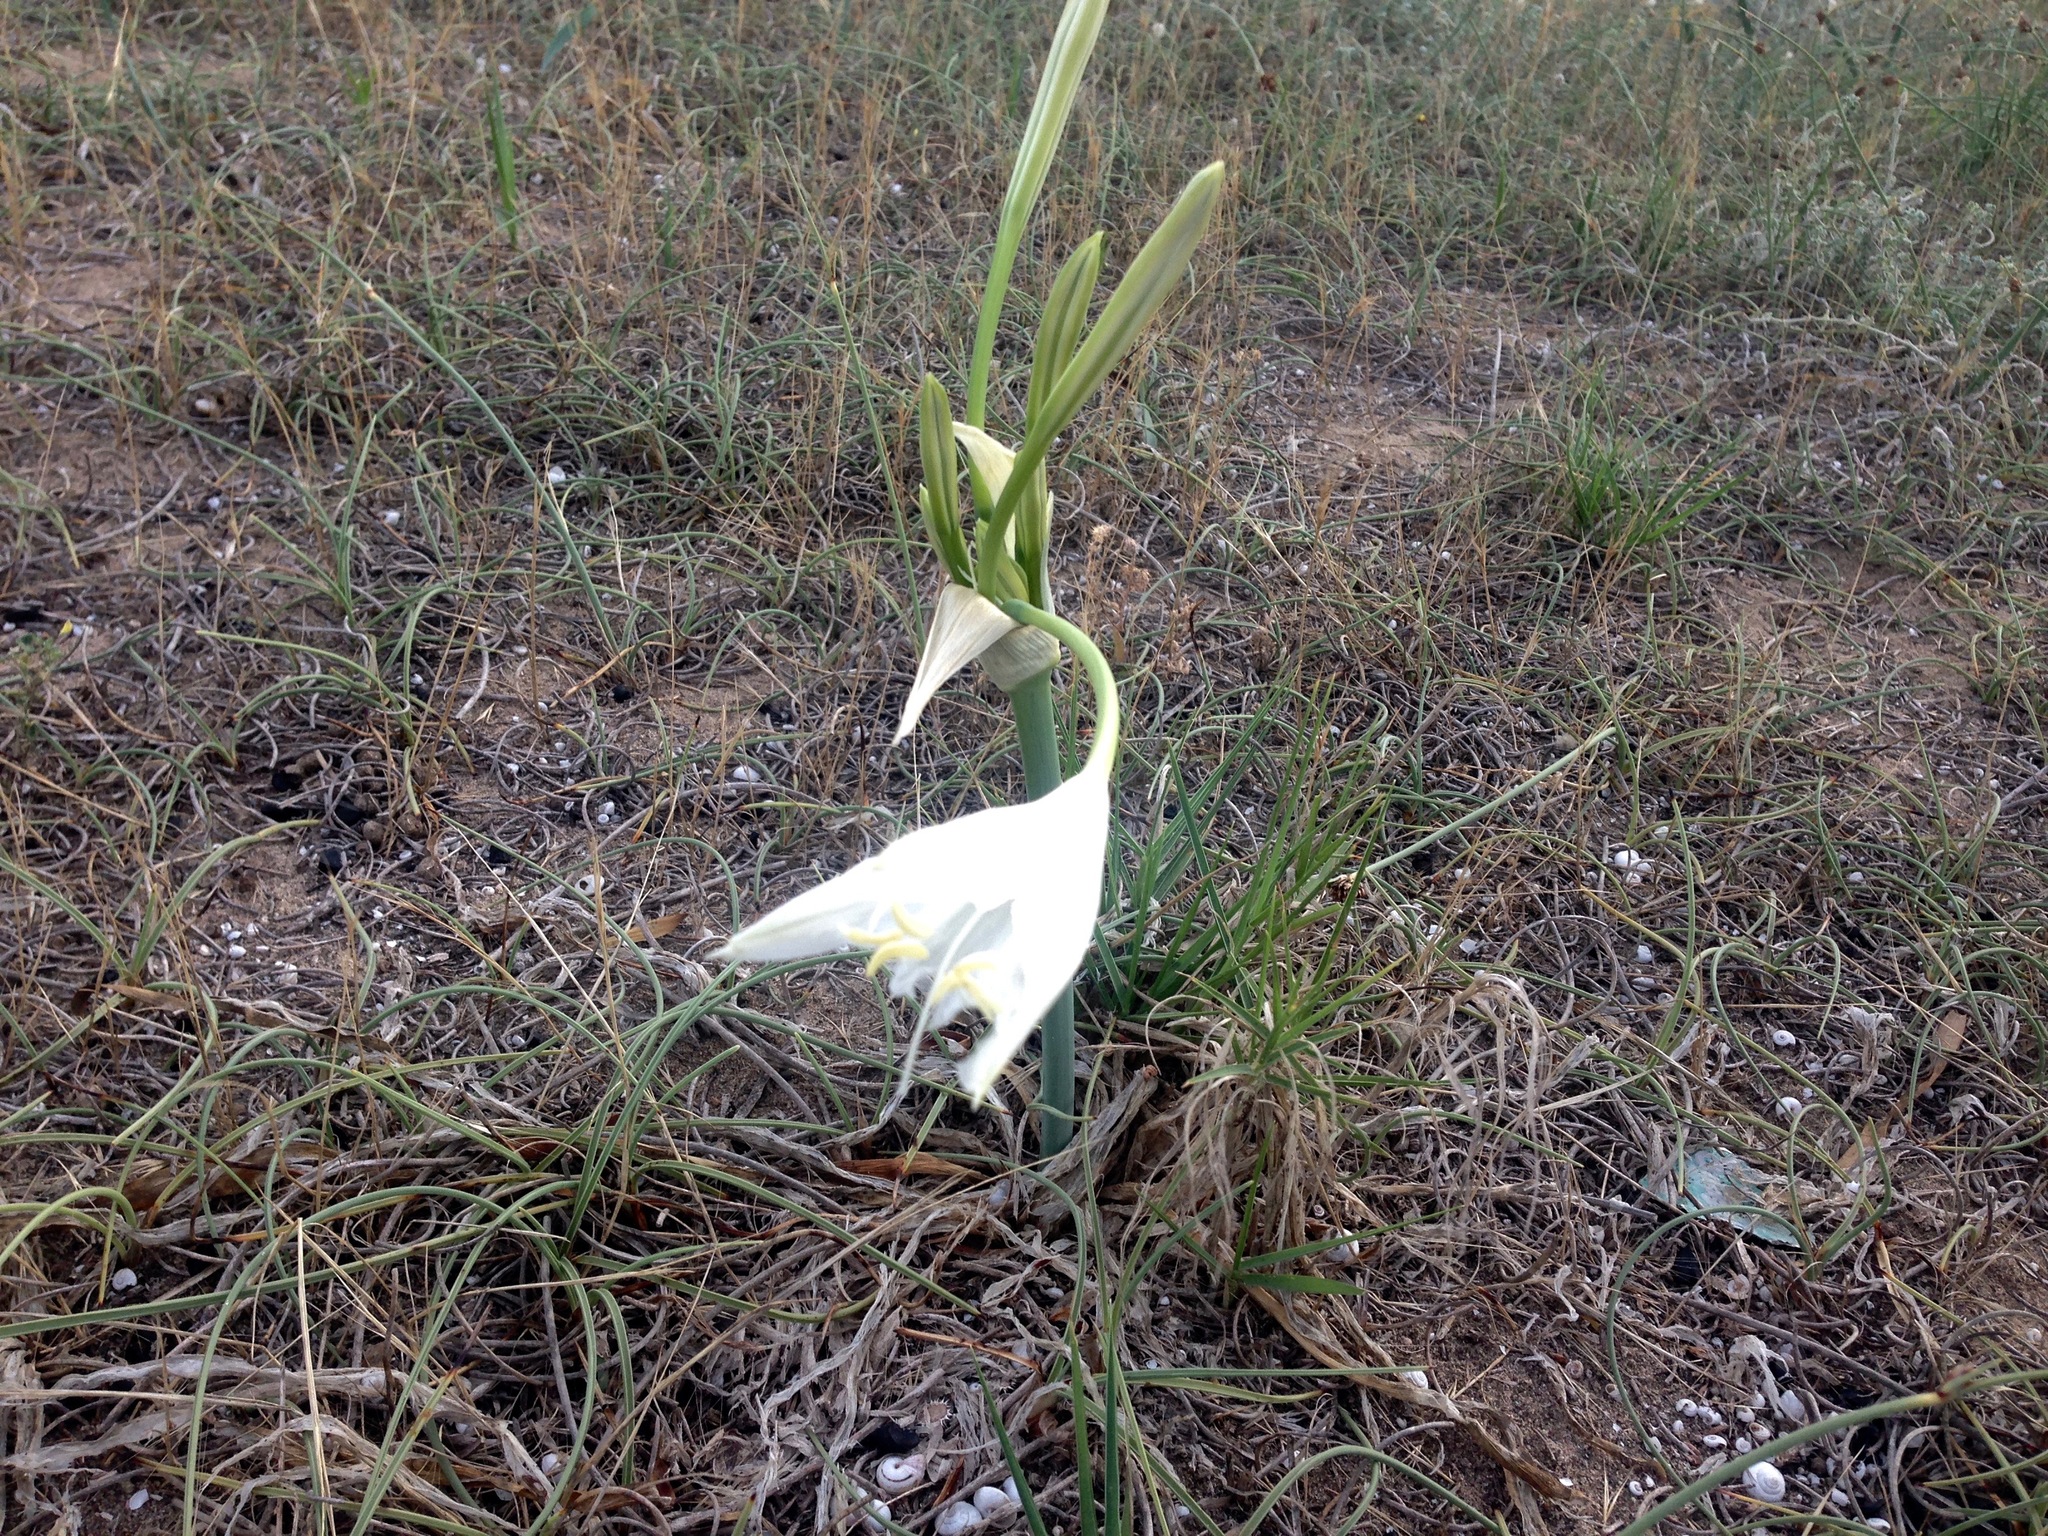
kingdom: Plantae
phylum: Tracheophyta
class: Liliopsida
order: Asparagales
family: Amaryllidaceae
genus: Pancratium
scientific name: Pancratium maritimum
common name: Sea-daffodil
